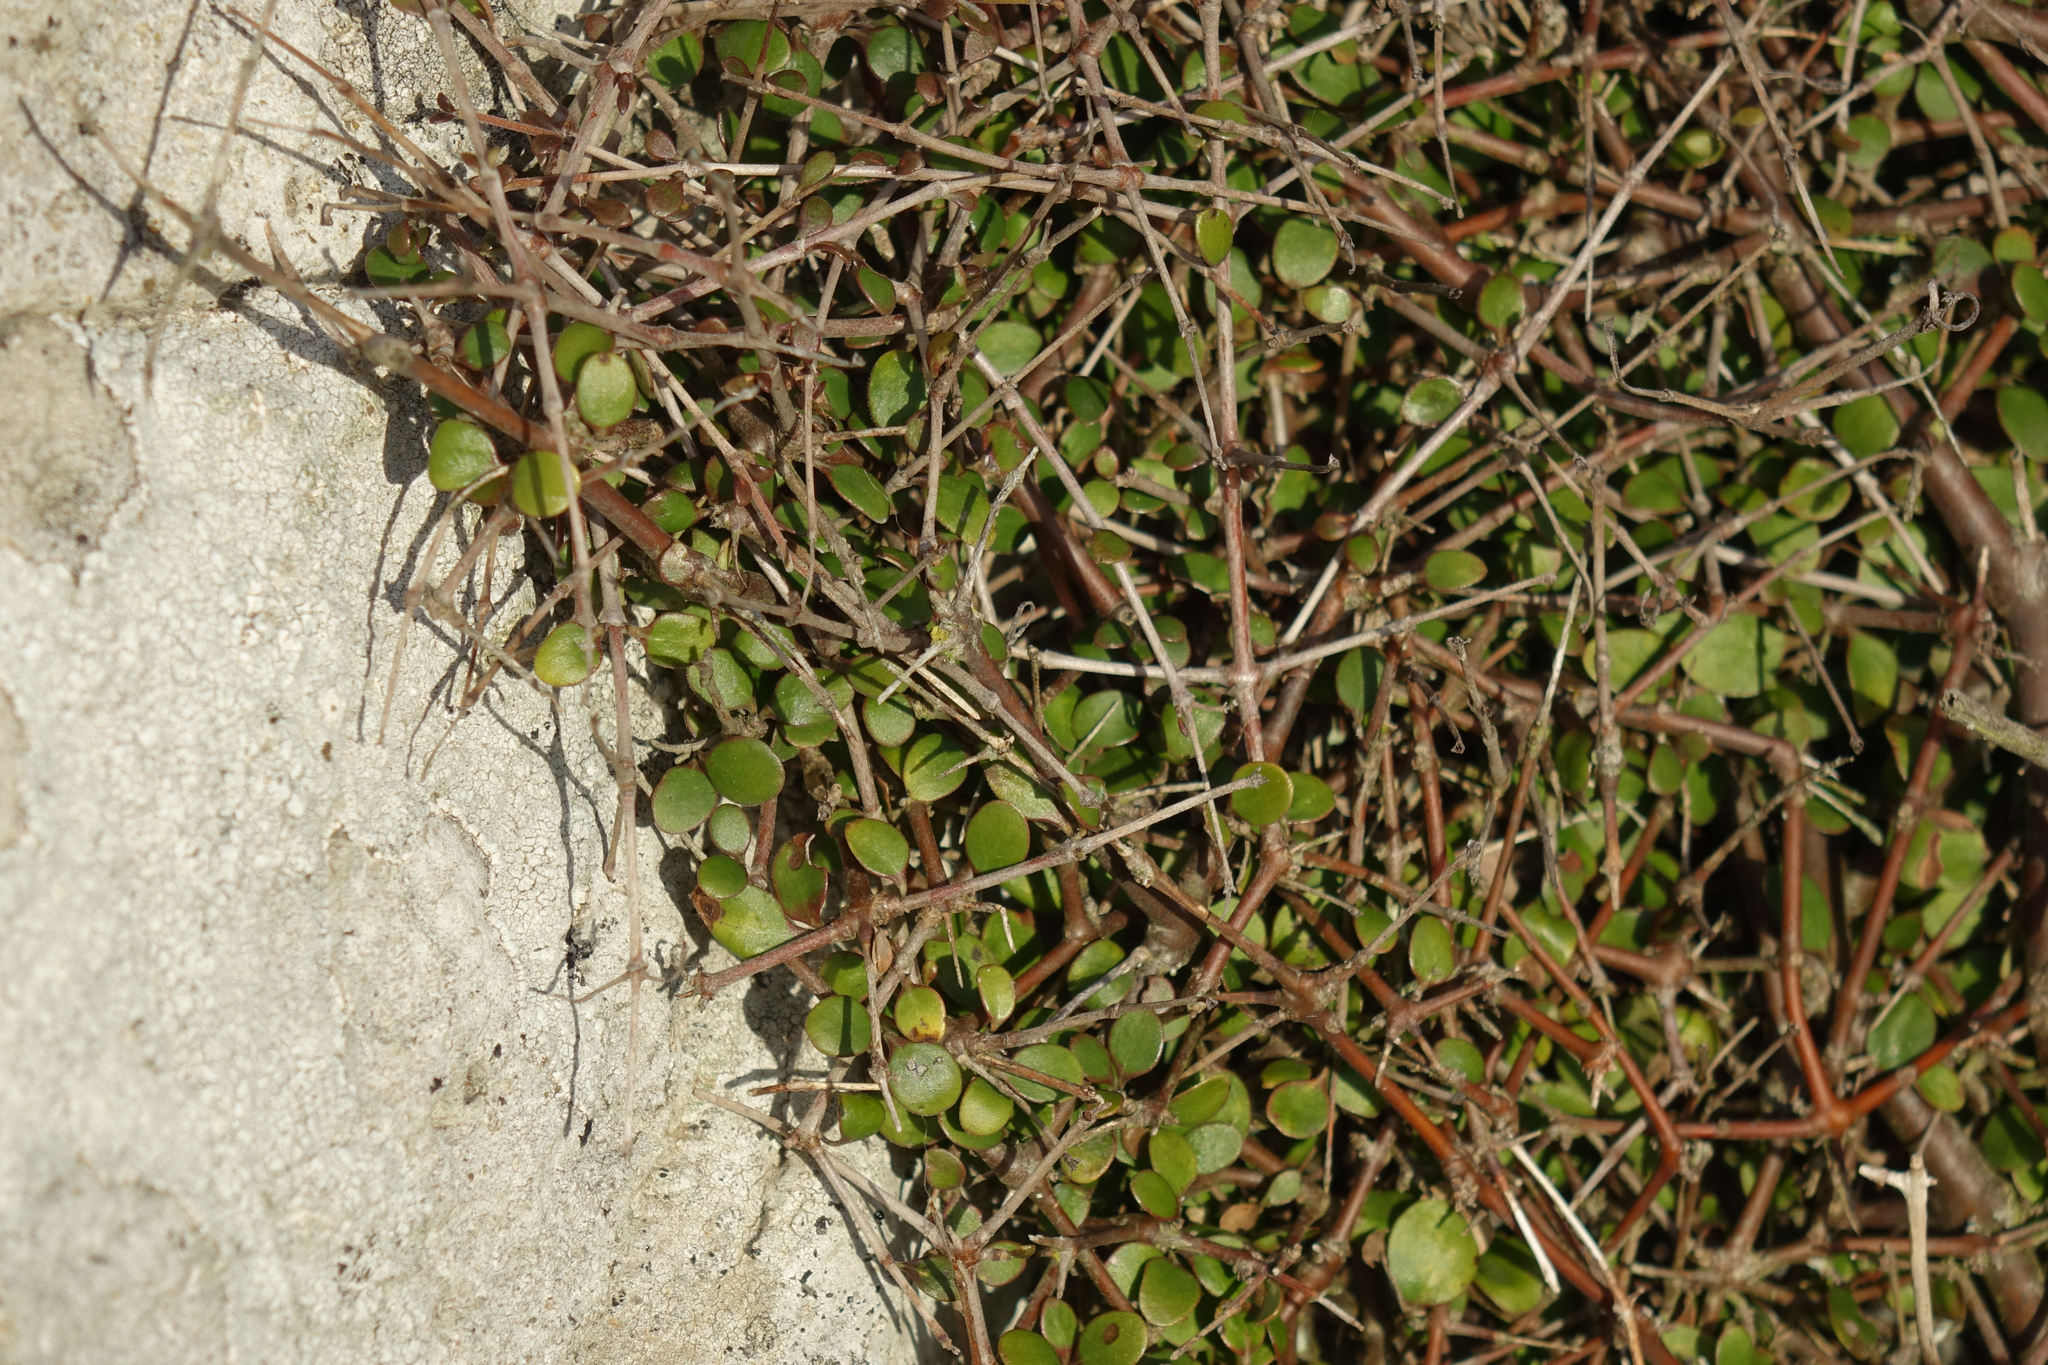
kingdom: Plantae
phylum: Tracheophyta
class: Magnoliopsida
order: Gentianales
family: Rubiaceae
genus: Coprosma
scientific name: Coprosma crassifolia
